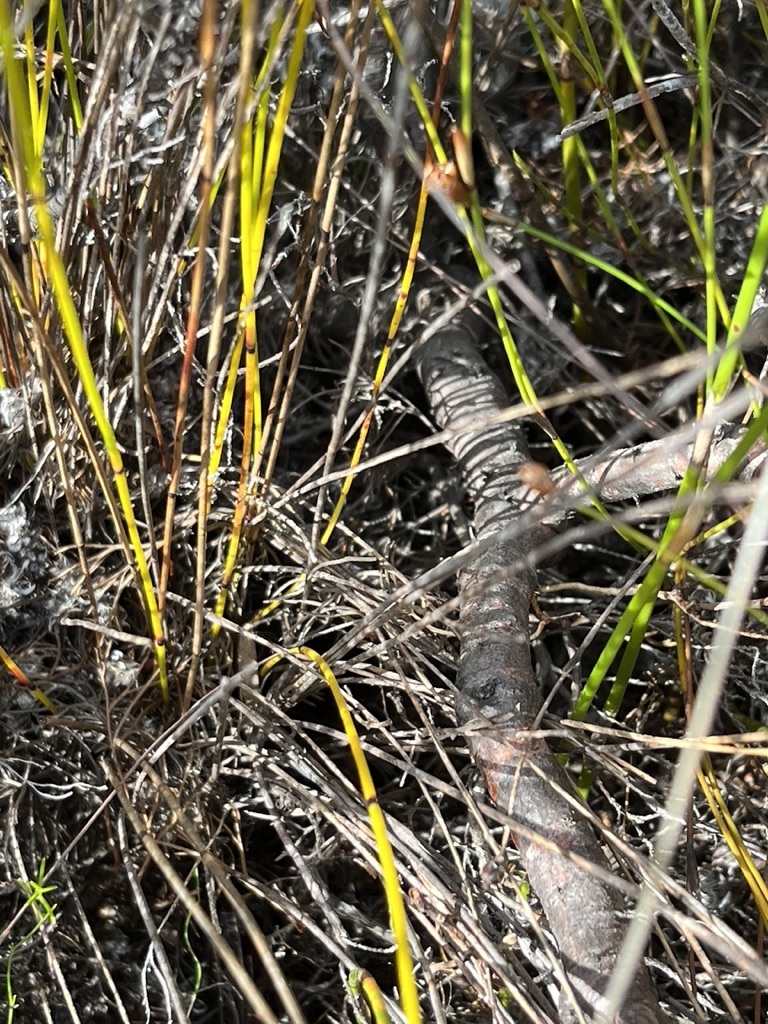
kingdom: Plantae
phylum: Tracheophyta
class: Magnoliopsida
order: Proteales
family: Proteaceae
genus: Serruria
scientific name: Serruria ascendens
